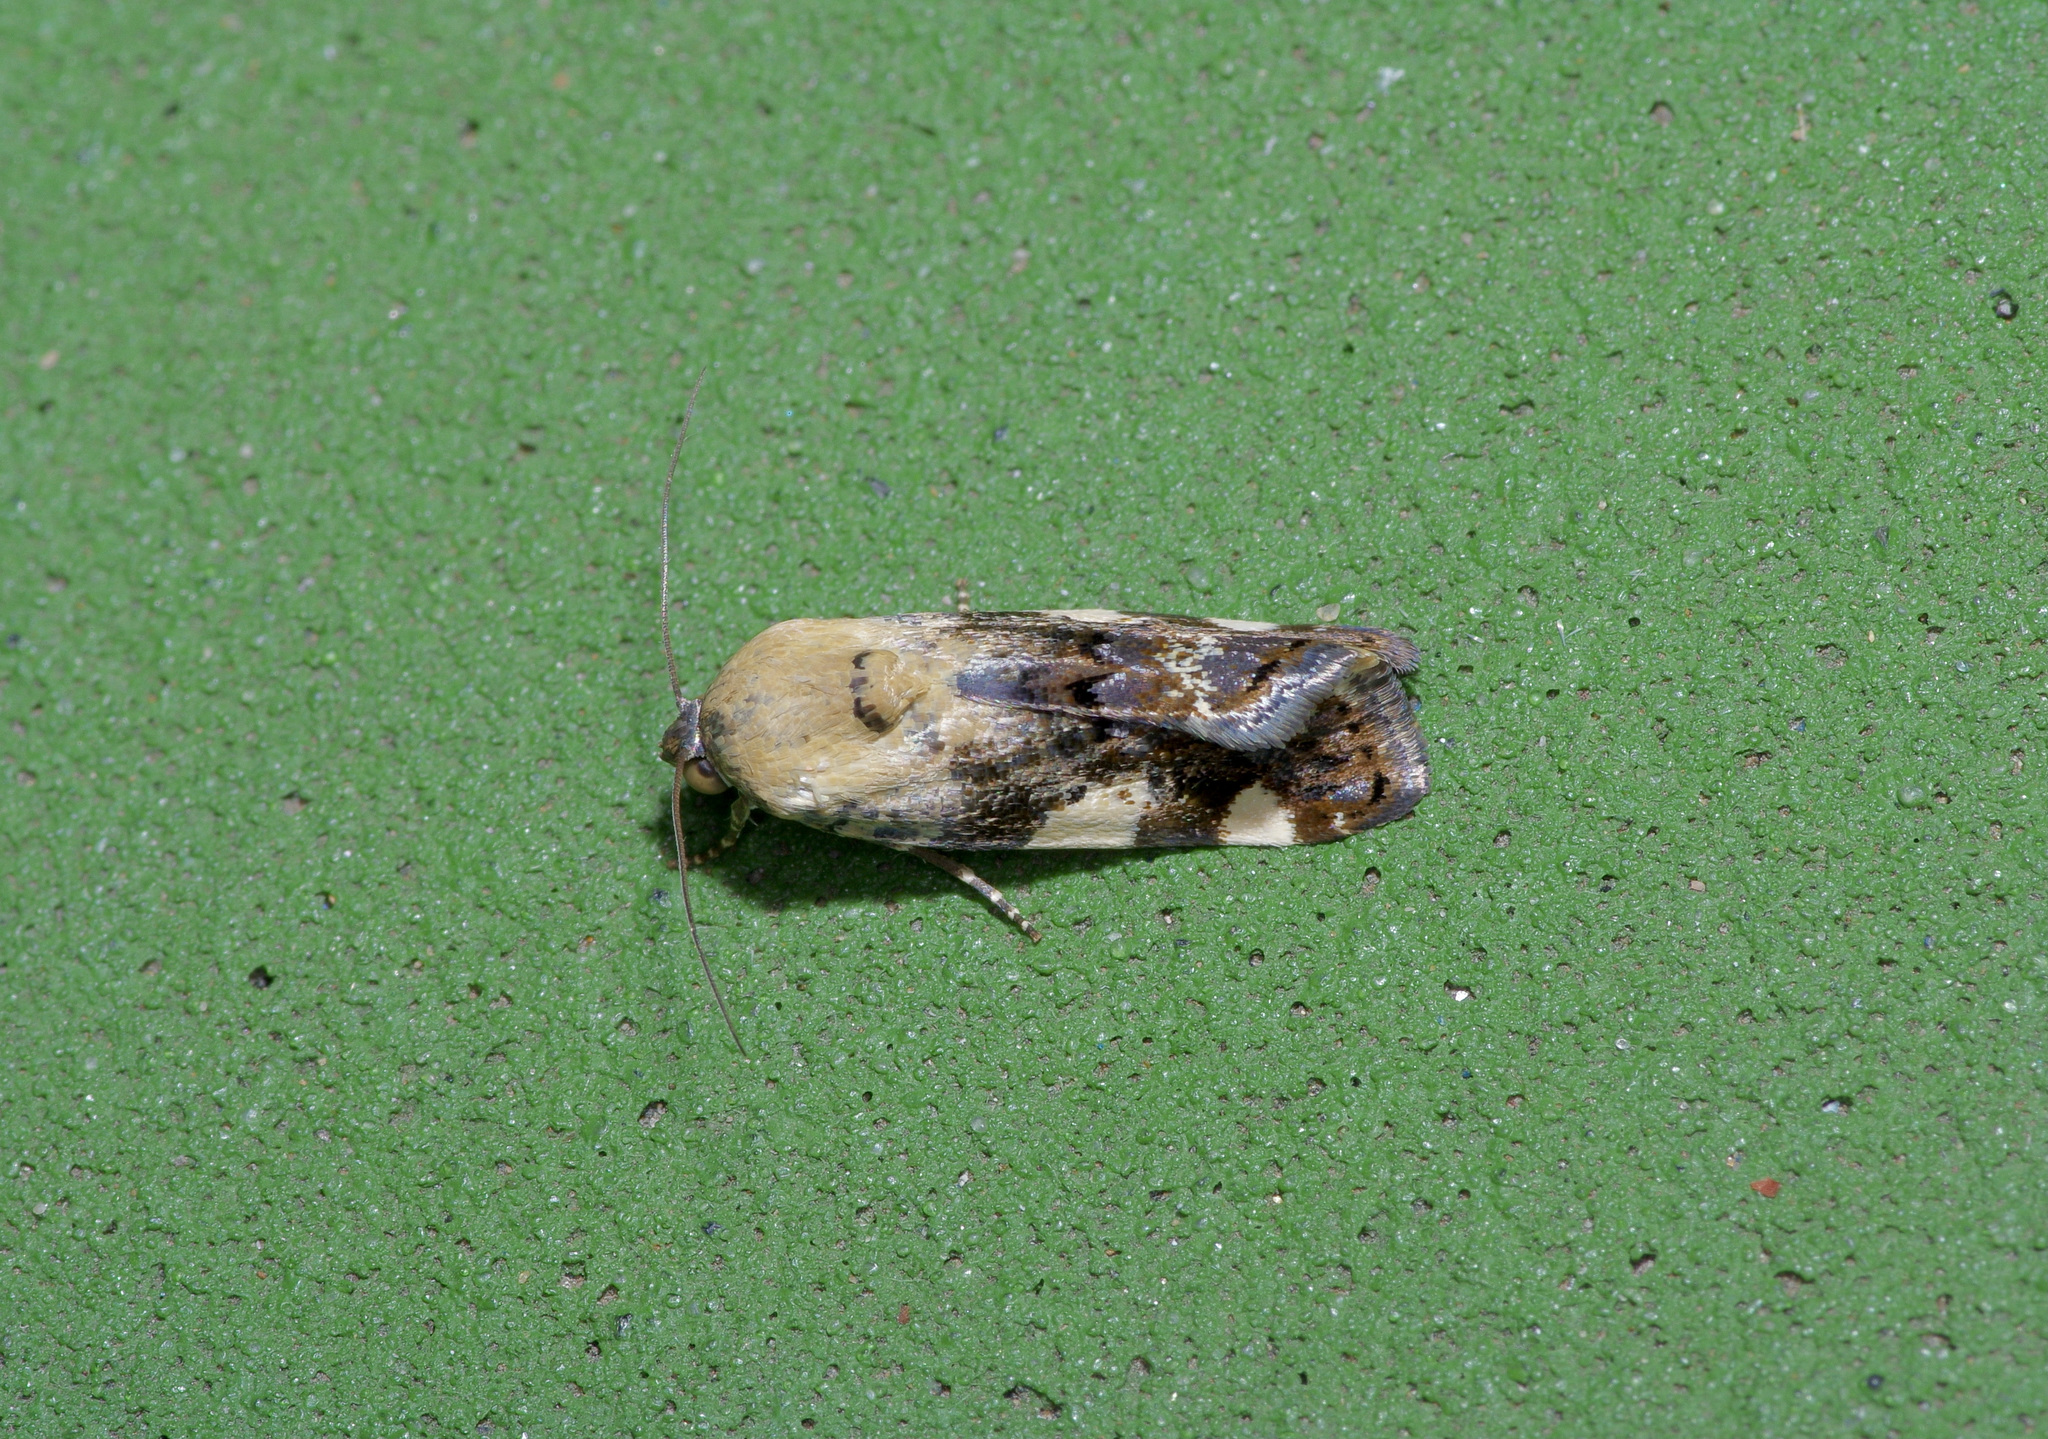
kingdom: Animalia
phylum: Arthropoda
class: Insecta
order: Lepidoptera
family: Noctuidae
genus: Acontia
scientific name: Acontia quadriplaga
